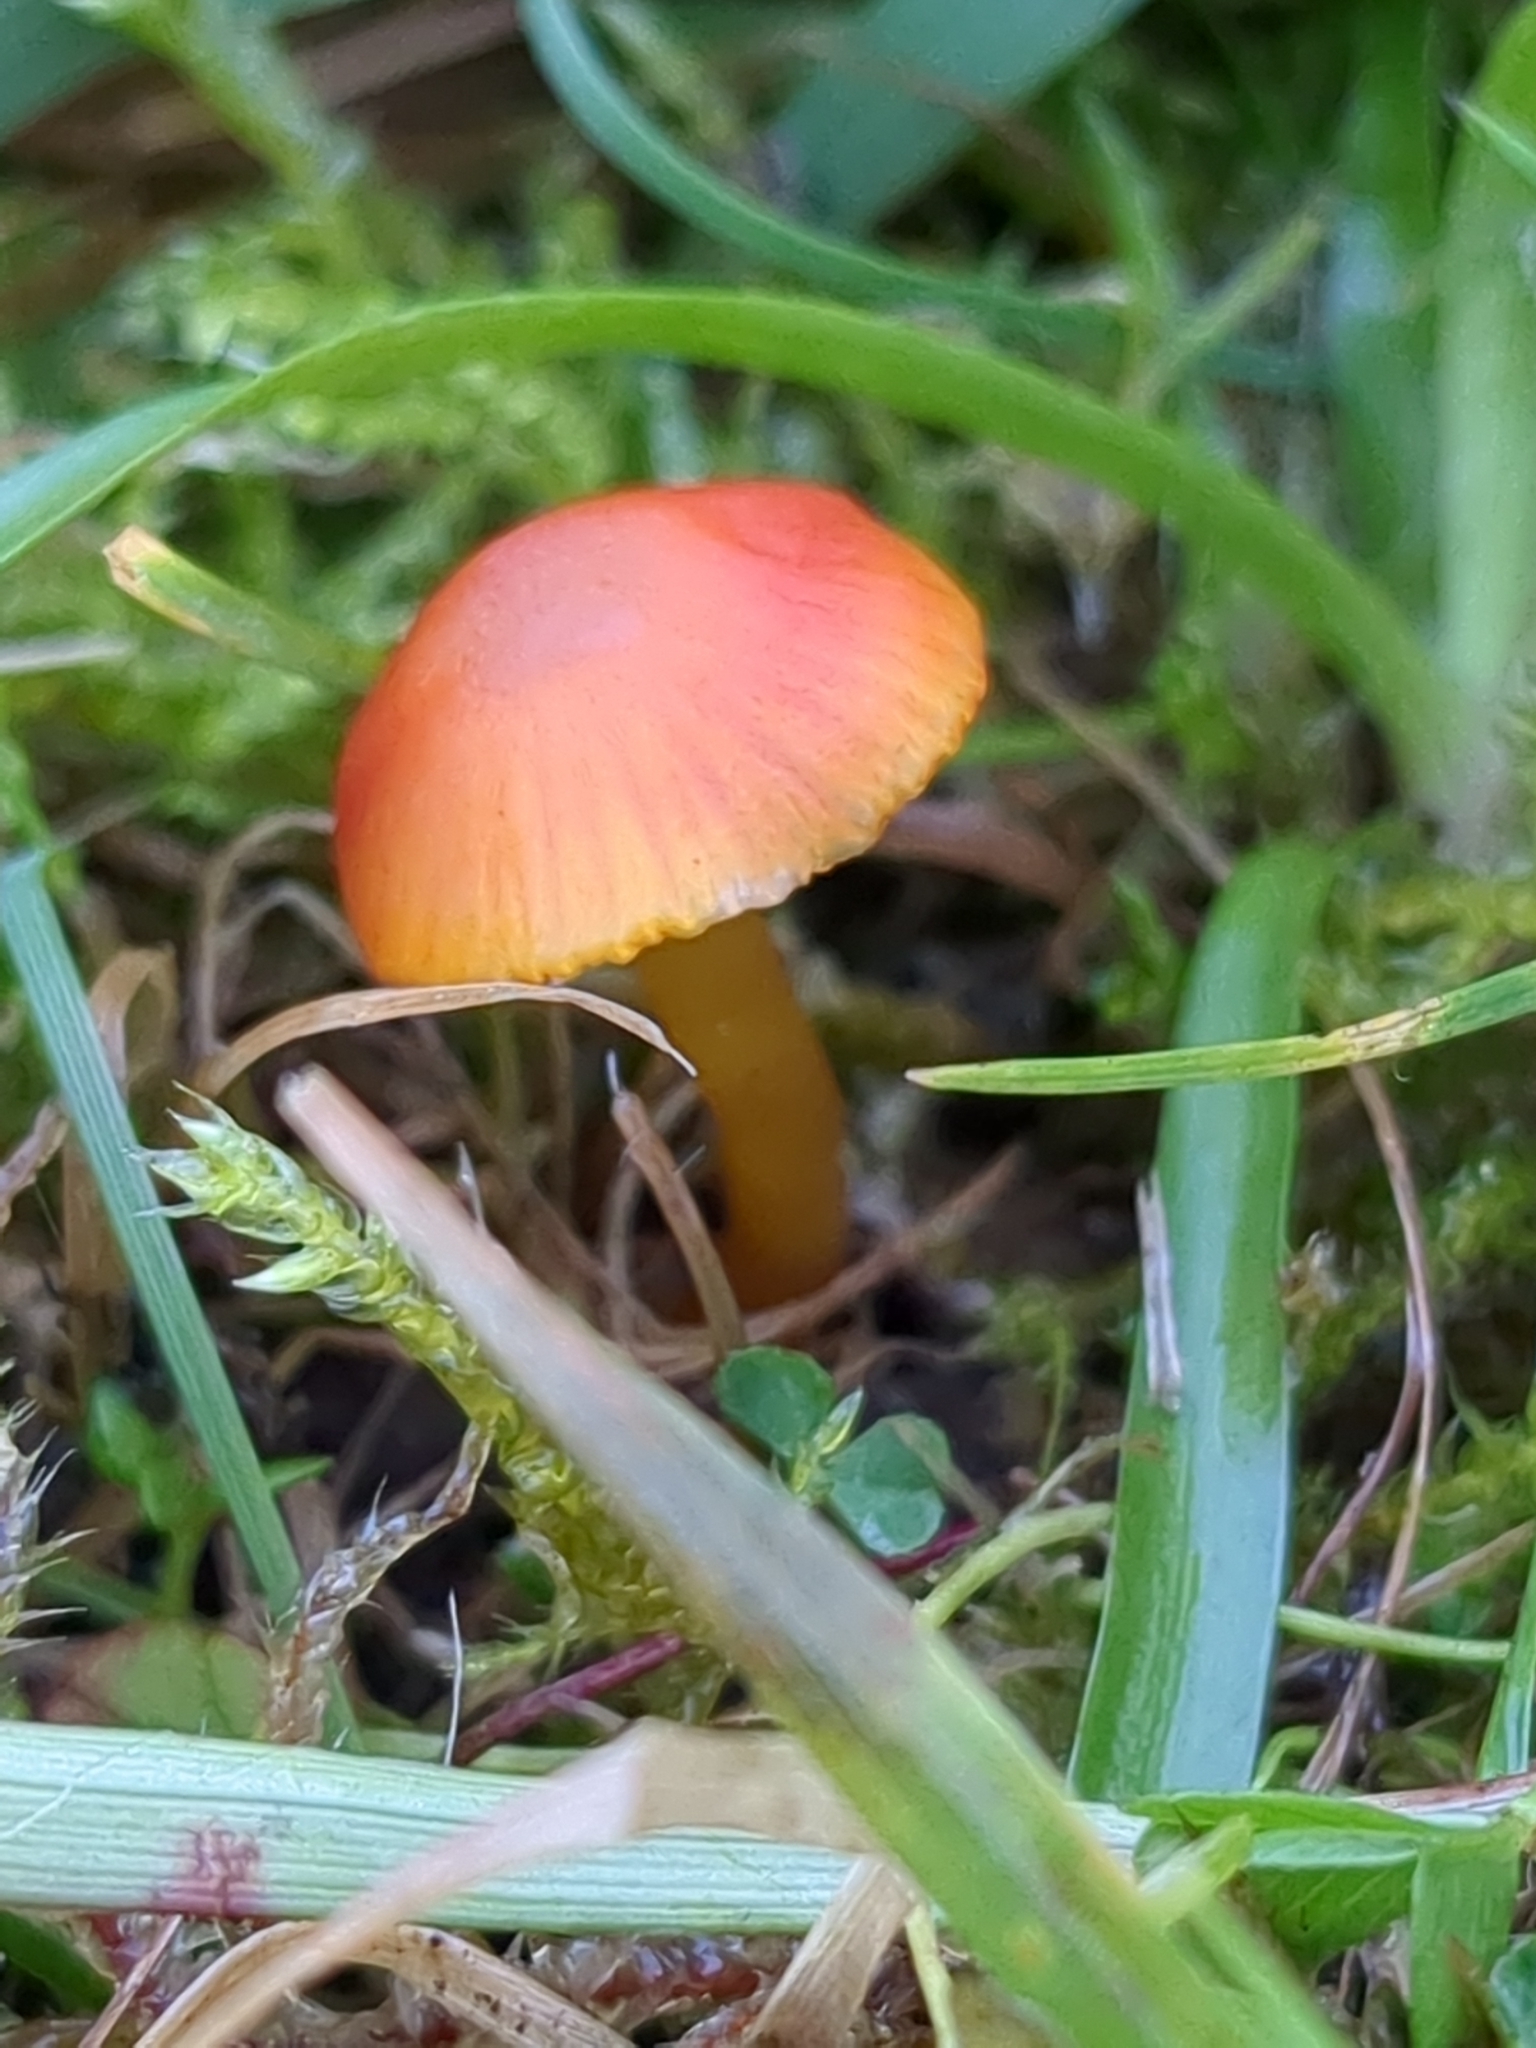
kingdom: Fungi
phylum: Basidiomycota
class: Agaricomycetes
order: Agaricales
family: Hygrophoraceae
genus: Hygrocybe
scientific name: Hygrocybe insipida
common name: Spangle waxcap
